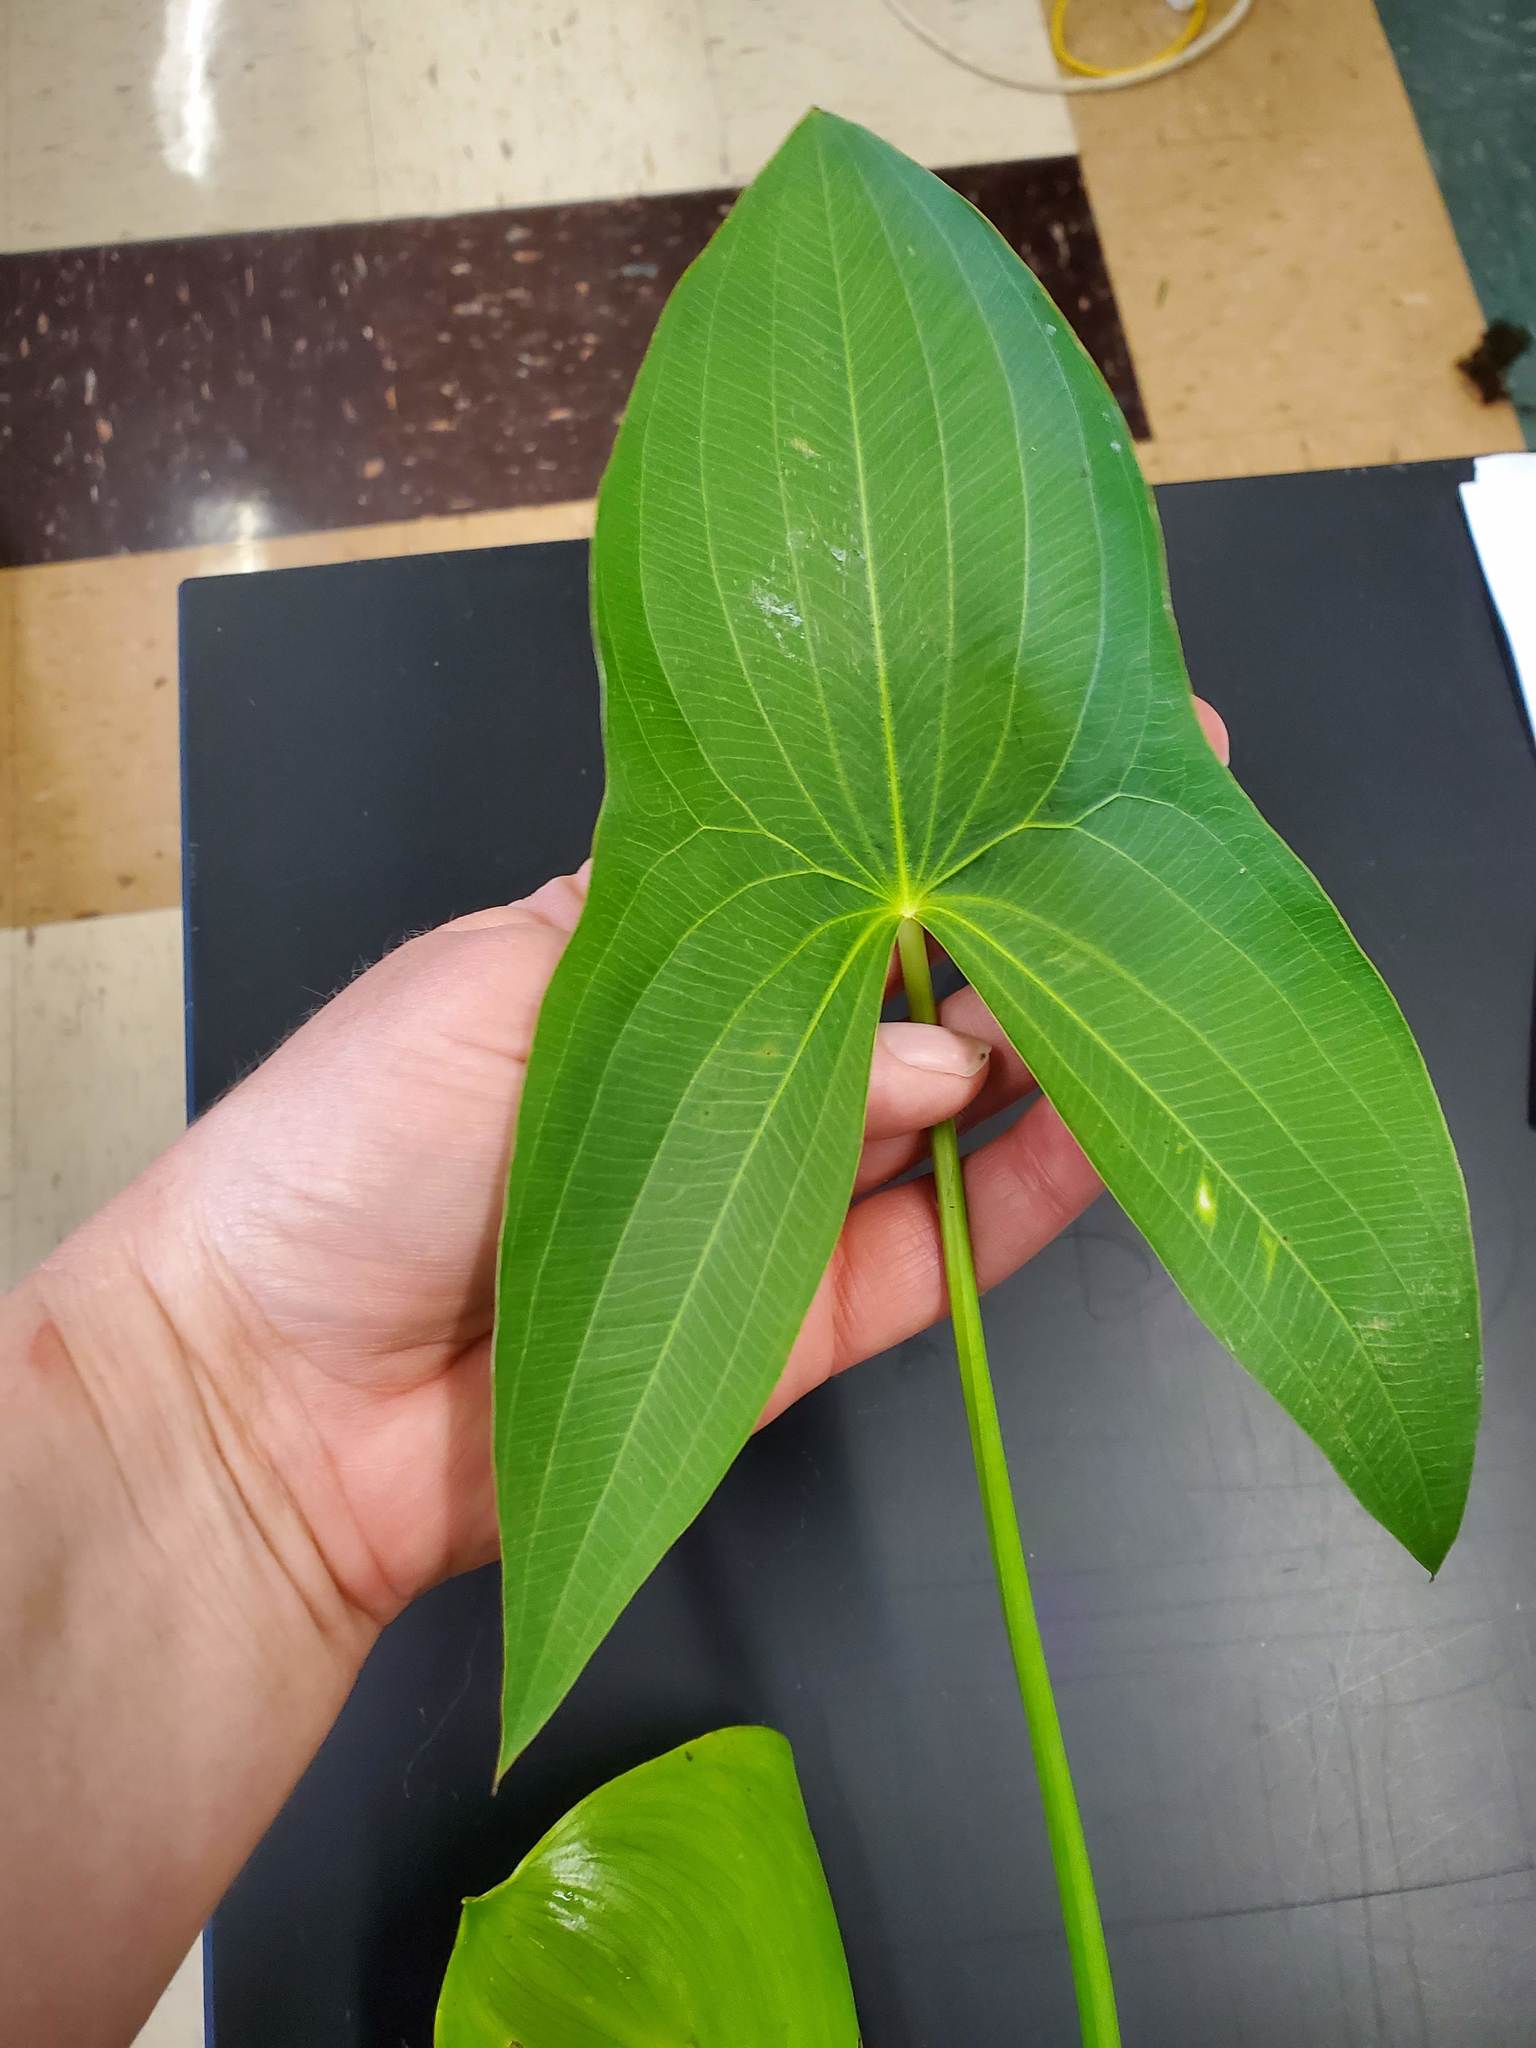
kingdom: Plantae
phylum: Tracheophyta
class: Liliopsida
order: Alismatales
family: Alismataceae
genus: Sagittaria
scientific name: Sagittaria latifolia
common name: Duck-potato
